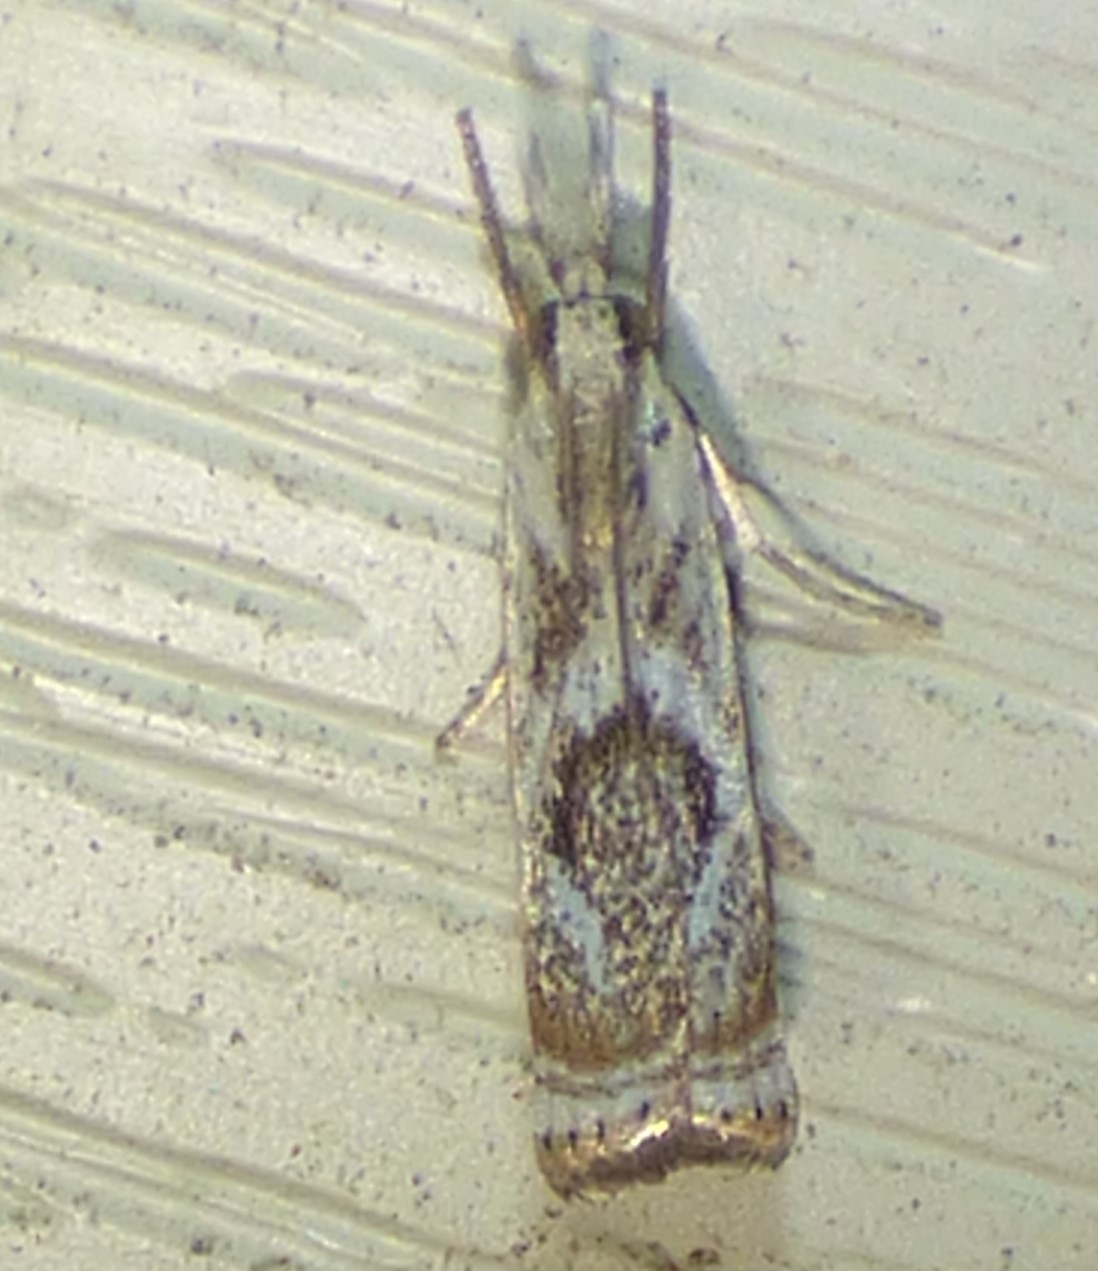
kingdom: Animalia
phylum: Arthropoda
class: Insecta
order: Lepidoptera
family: Crambidae
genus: Microcrambus
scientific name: Microcrambus elegans
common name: Elegant grass-veneer
